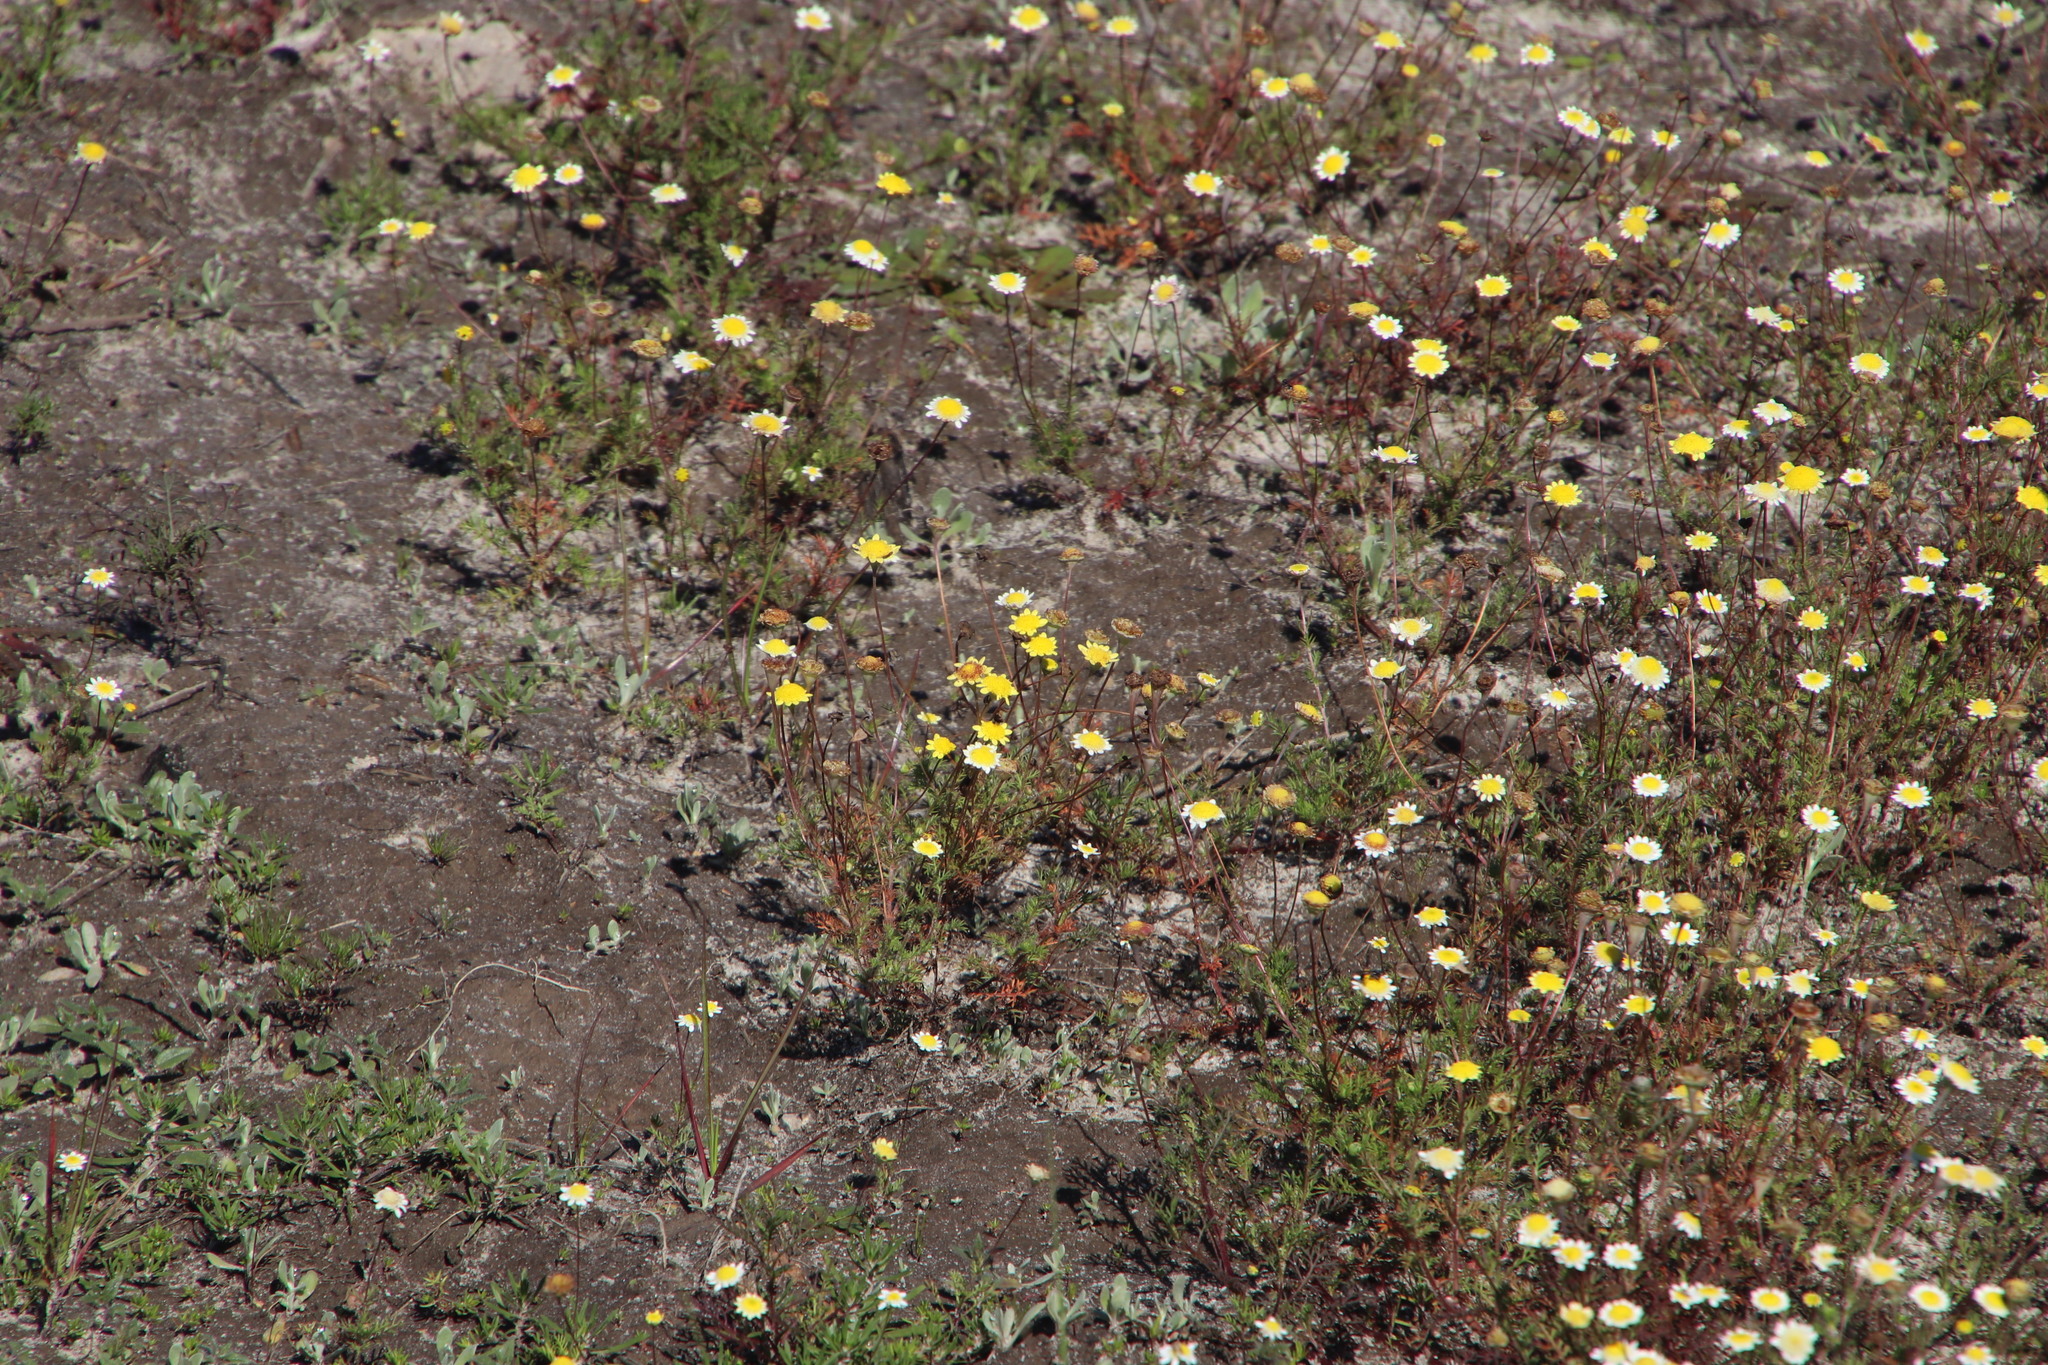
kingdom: Plantae
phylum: Tracheophyta
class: Magnoliopsida
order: Asterales
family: Asteraceae
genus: Cotula
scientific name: Cotula turbinata
